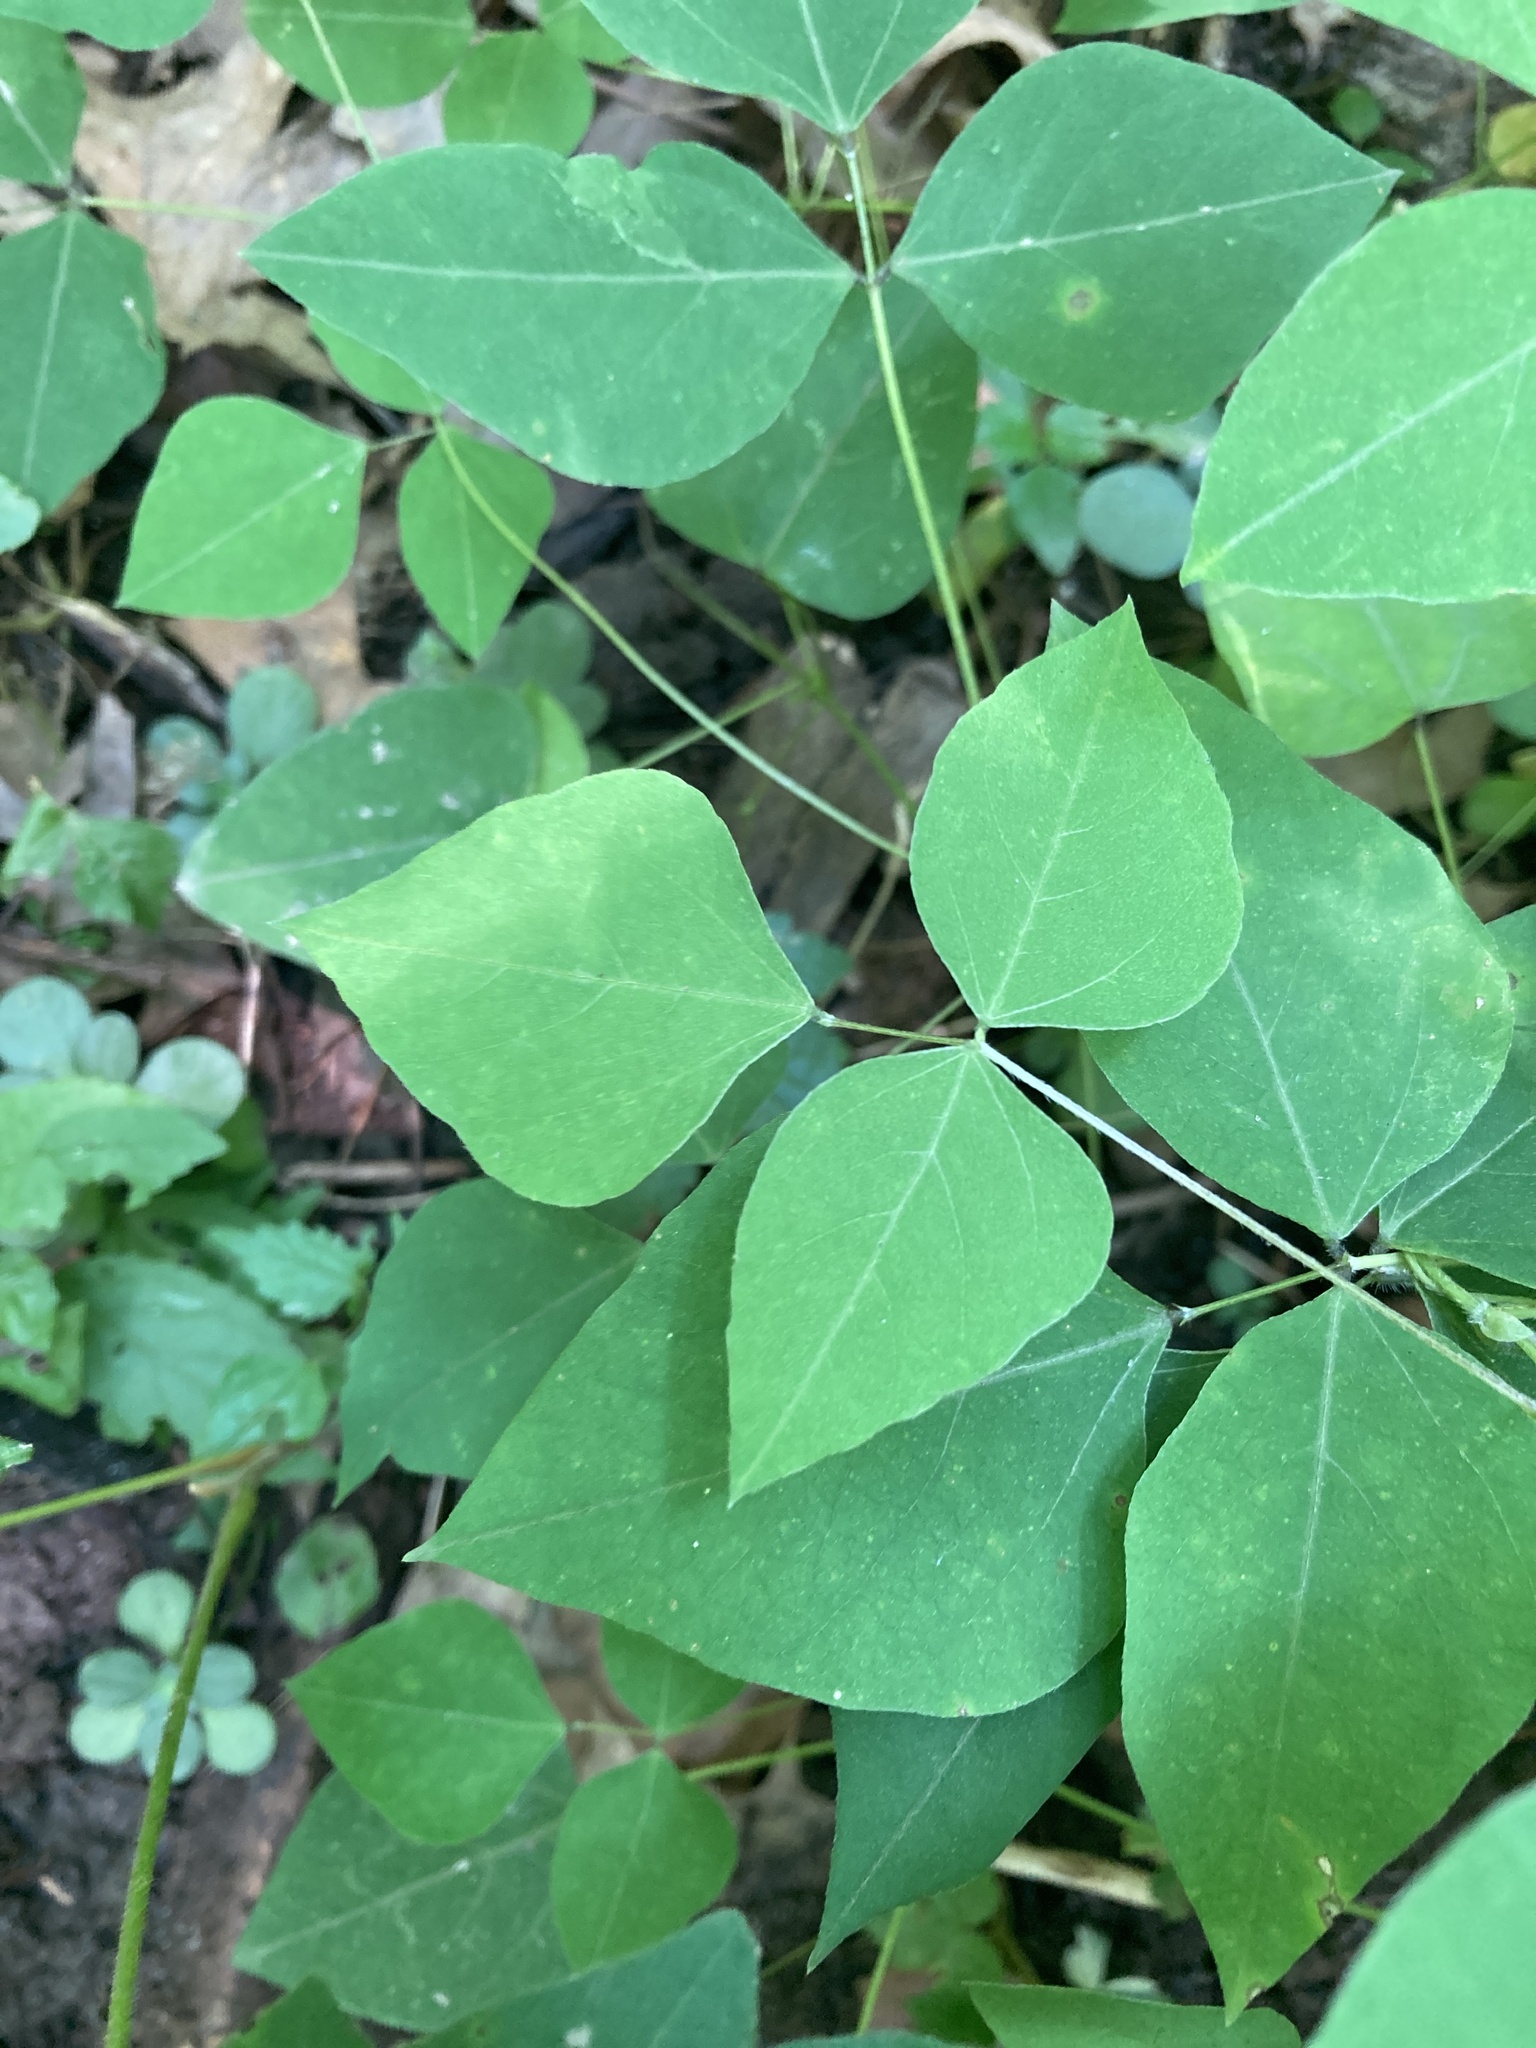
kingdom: Plantae
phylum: Tracheophyta
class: Magnoliopsida
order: Fabales
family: Fabaceae
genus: Amphicarpaea
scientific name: Amphicarpaea bracteata
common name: American hog peanut
